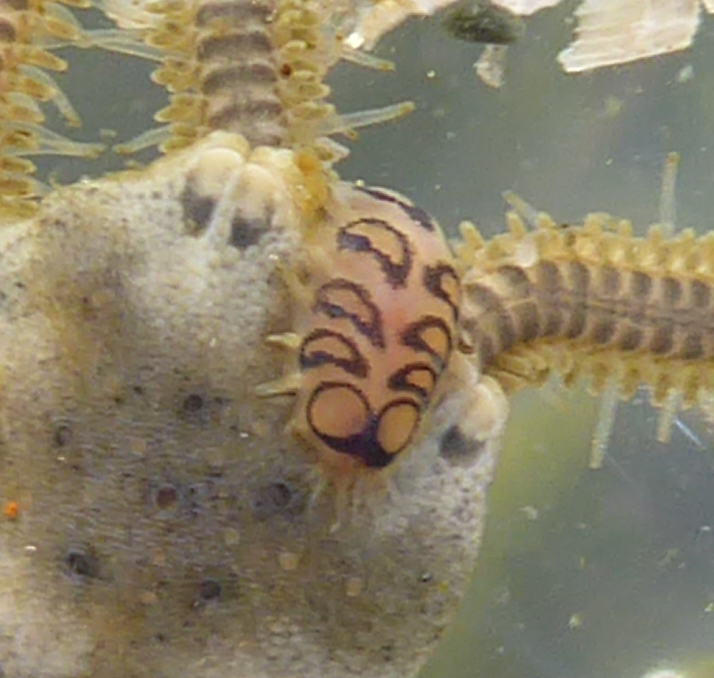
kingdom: Animalia
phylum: Annelida
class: Polychaeta
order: Phyllodocida
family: Polynoidae
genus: Malmgreniella
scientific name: Malmgreniella nigralba
